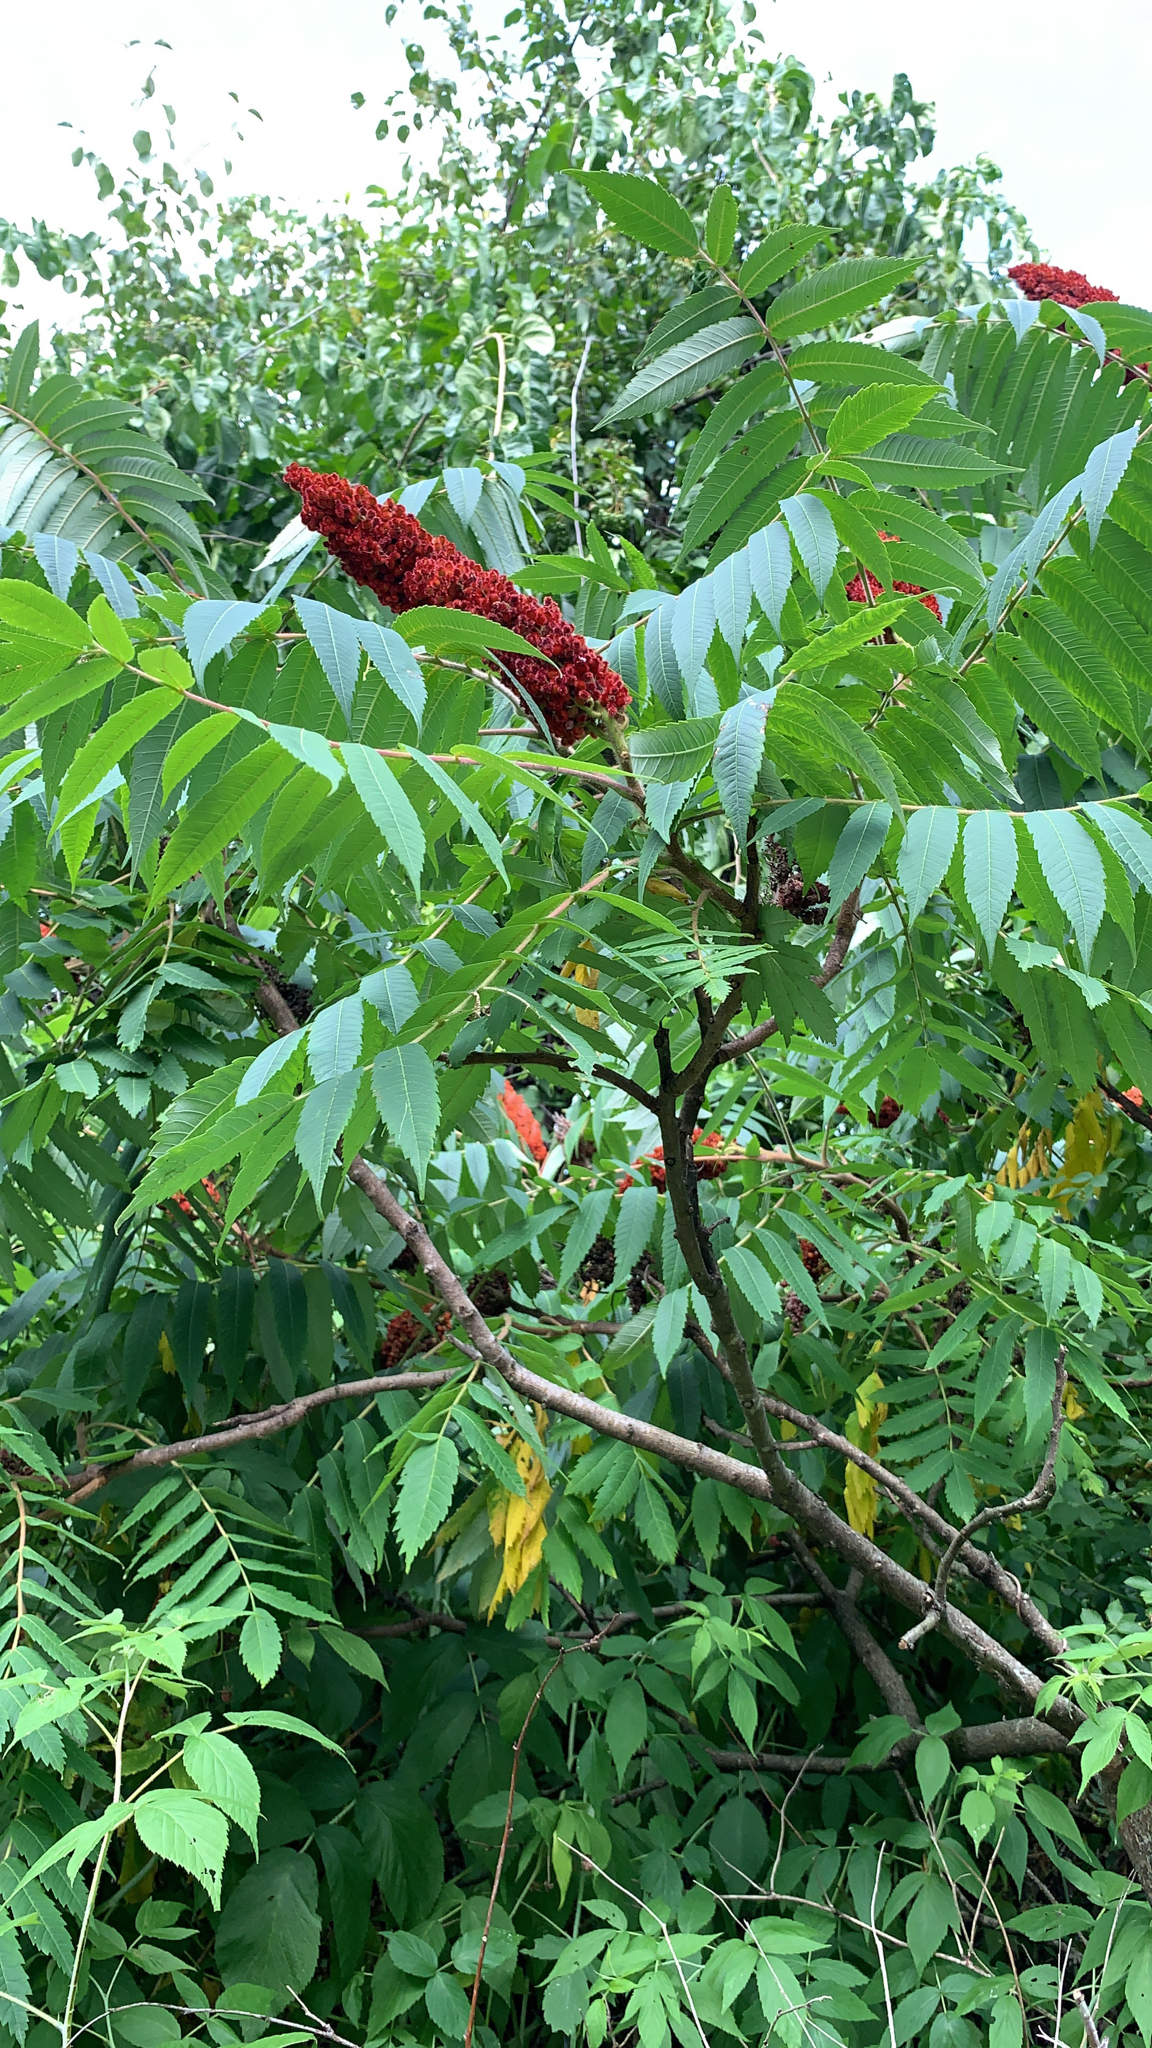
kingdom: Plantae
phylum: Tracheophyta
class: Magnoliopsida
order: Sapindales
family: Anacardiaceae
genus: Rhus
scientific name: Rhus typhina
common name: Staghorn sumac
